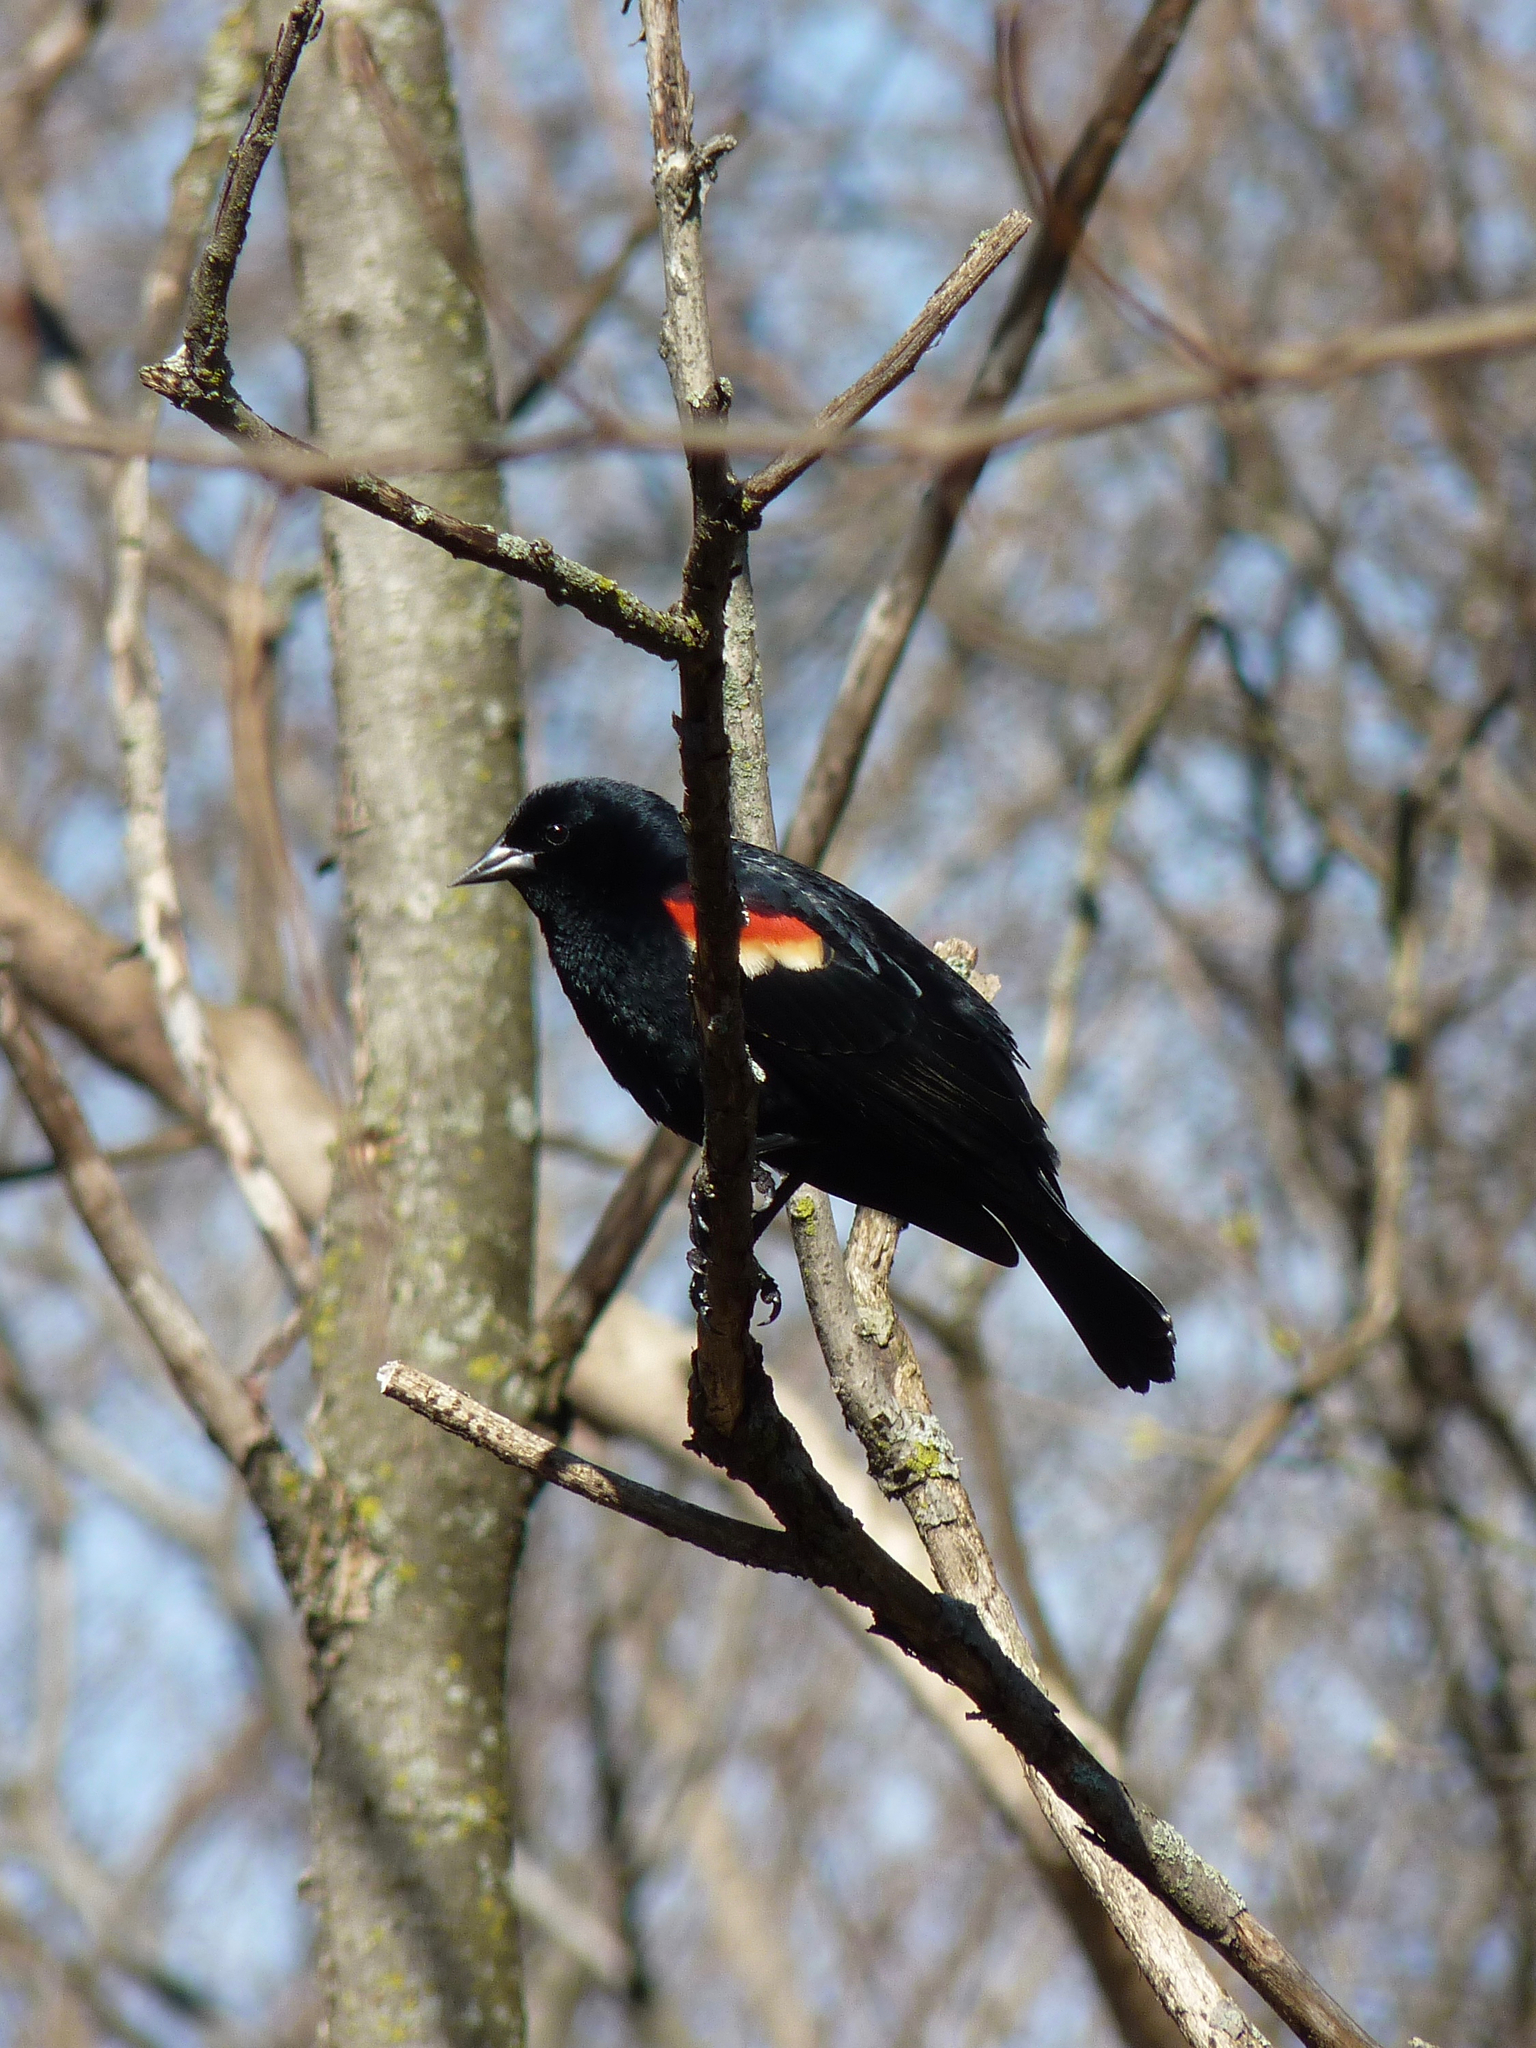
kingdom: Animalia
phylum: Chordata
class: Aves
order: Passeriformes
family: Icteridae
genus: Agelaius
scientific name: Agelaius phoeniceus
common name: Red-winged blackbird
